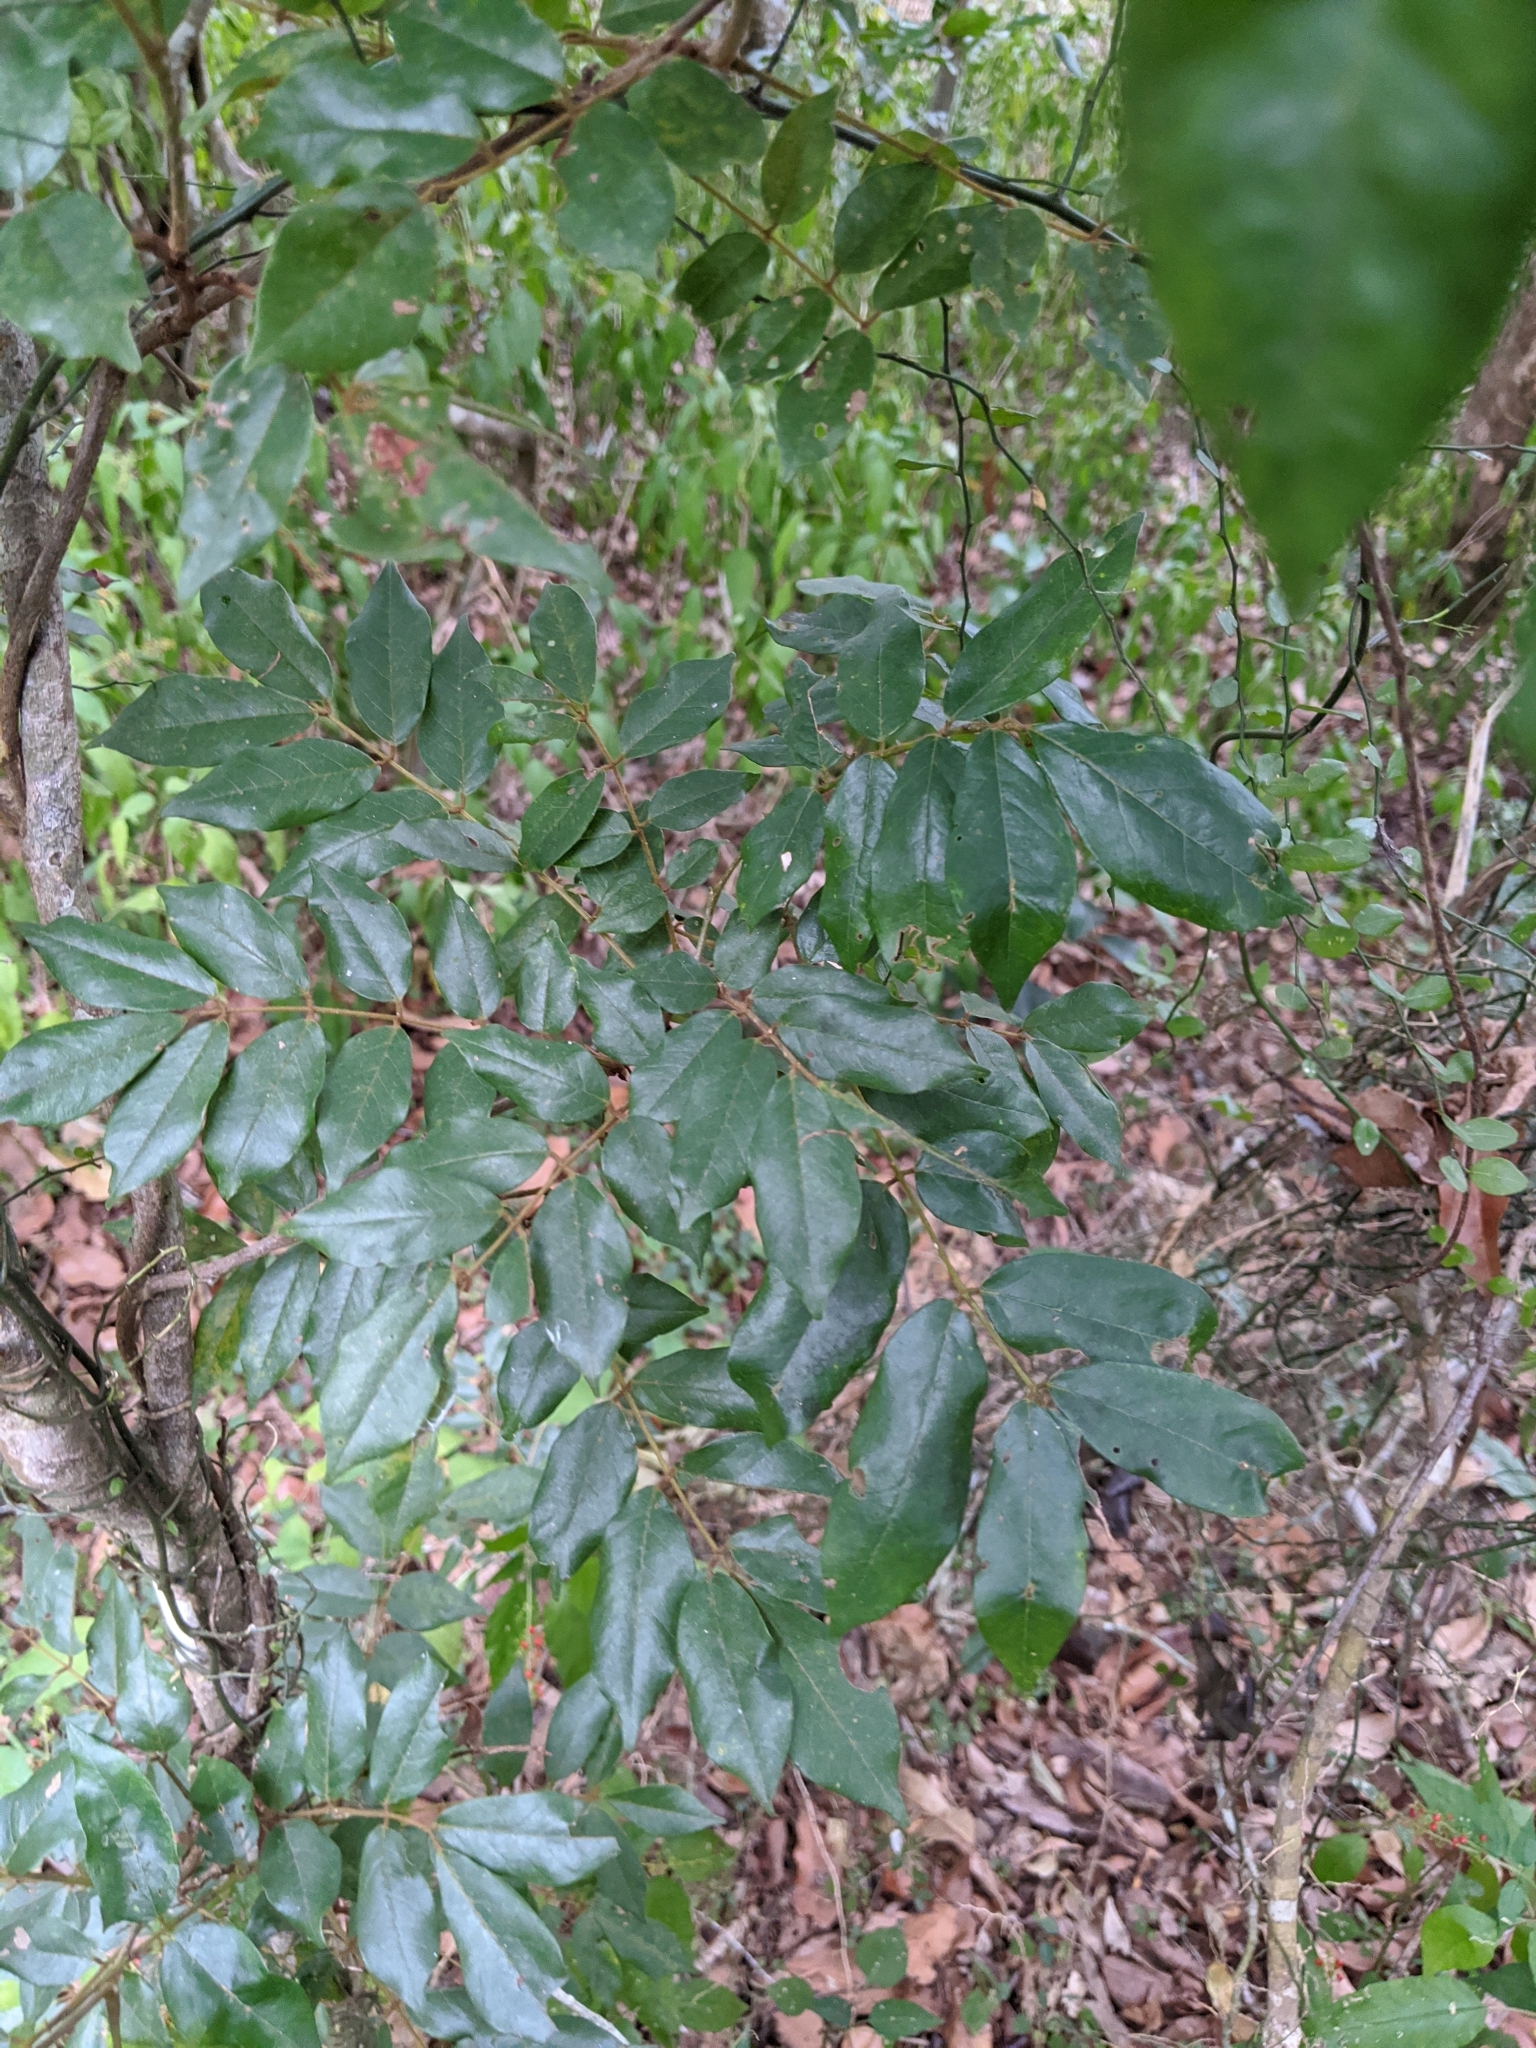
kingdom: Plantae
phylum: Tracheophyta
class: Magnoliopsida
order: Fabales
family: Fabaceae
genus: Austrosteenisia
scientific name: Austrosteenisia blackii
